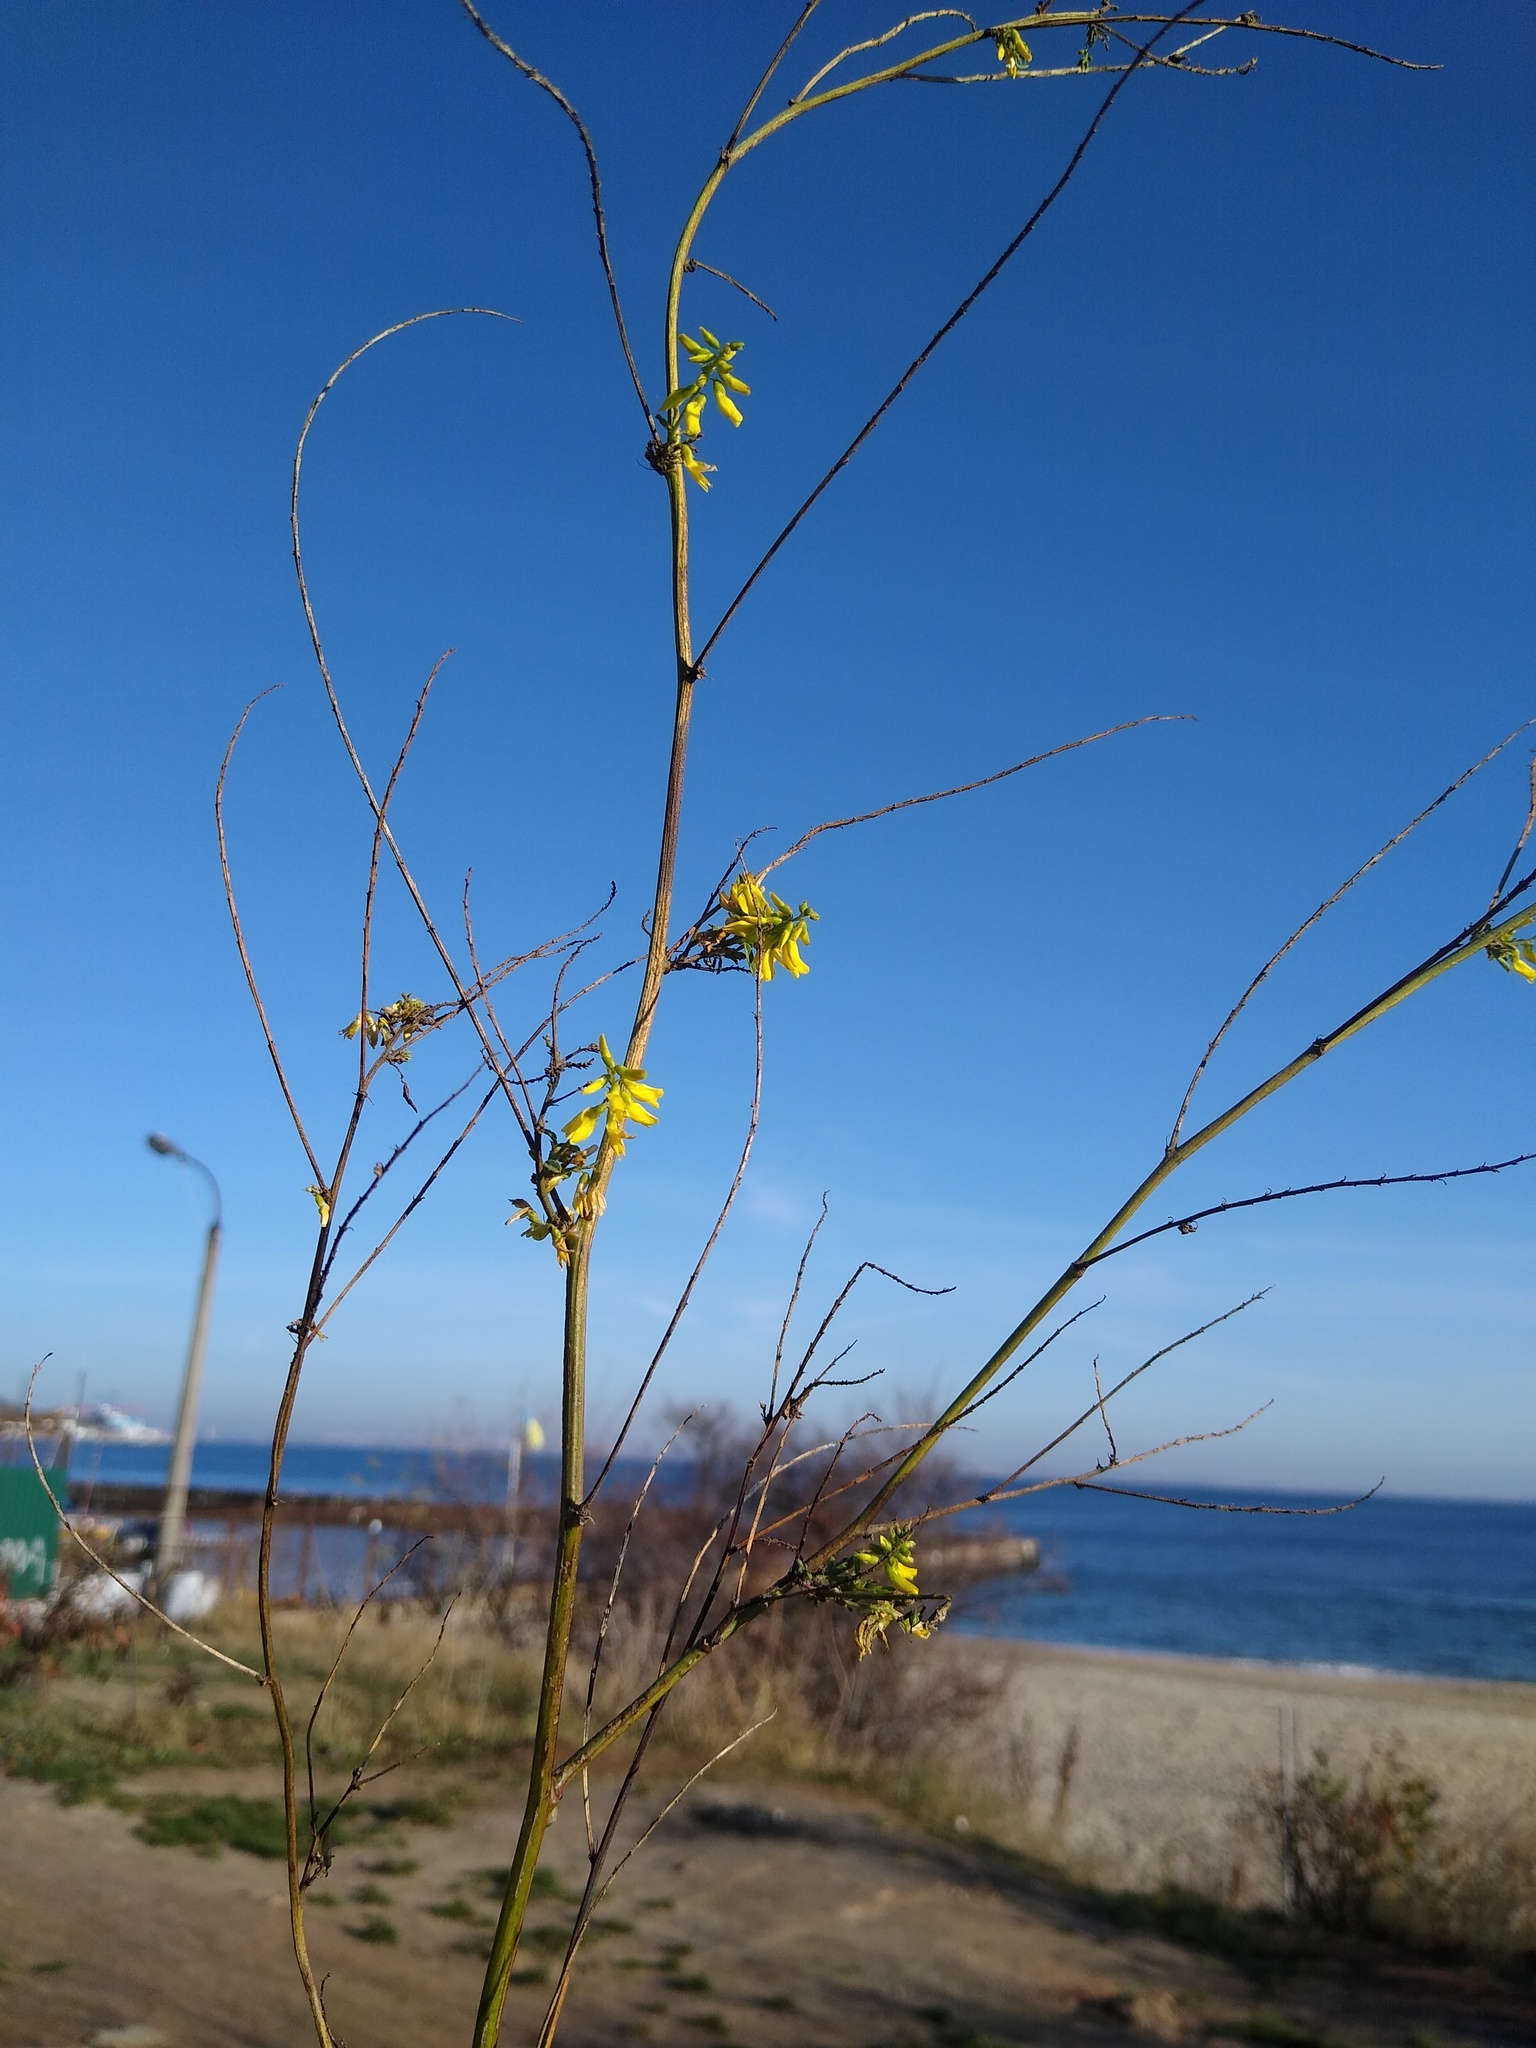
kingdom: Plantae
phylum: Tracheophyta
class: Magnoliopsida
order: Fabales
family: Fabaceae
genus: Melilotus
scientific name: Melilotus officinalis
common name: Sweetclover
